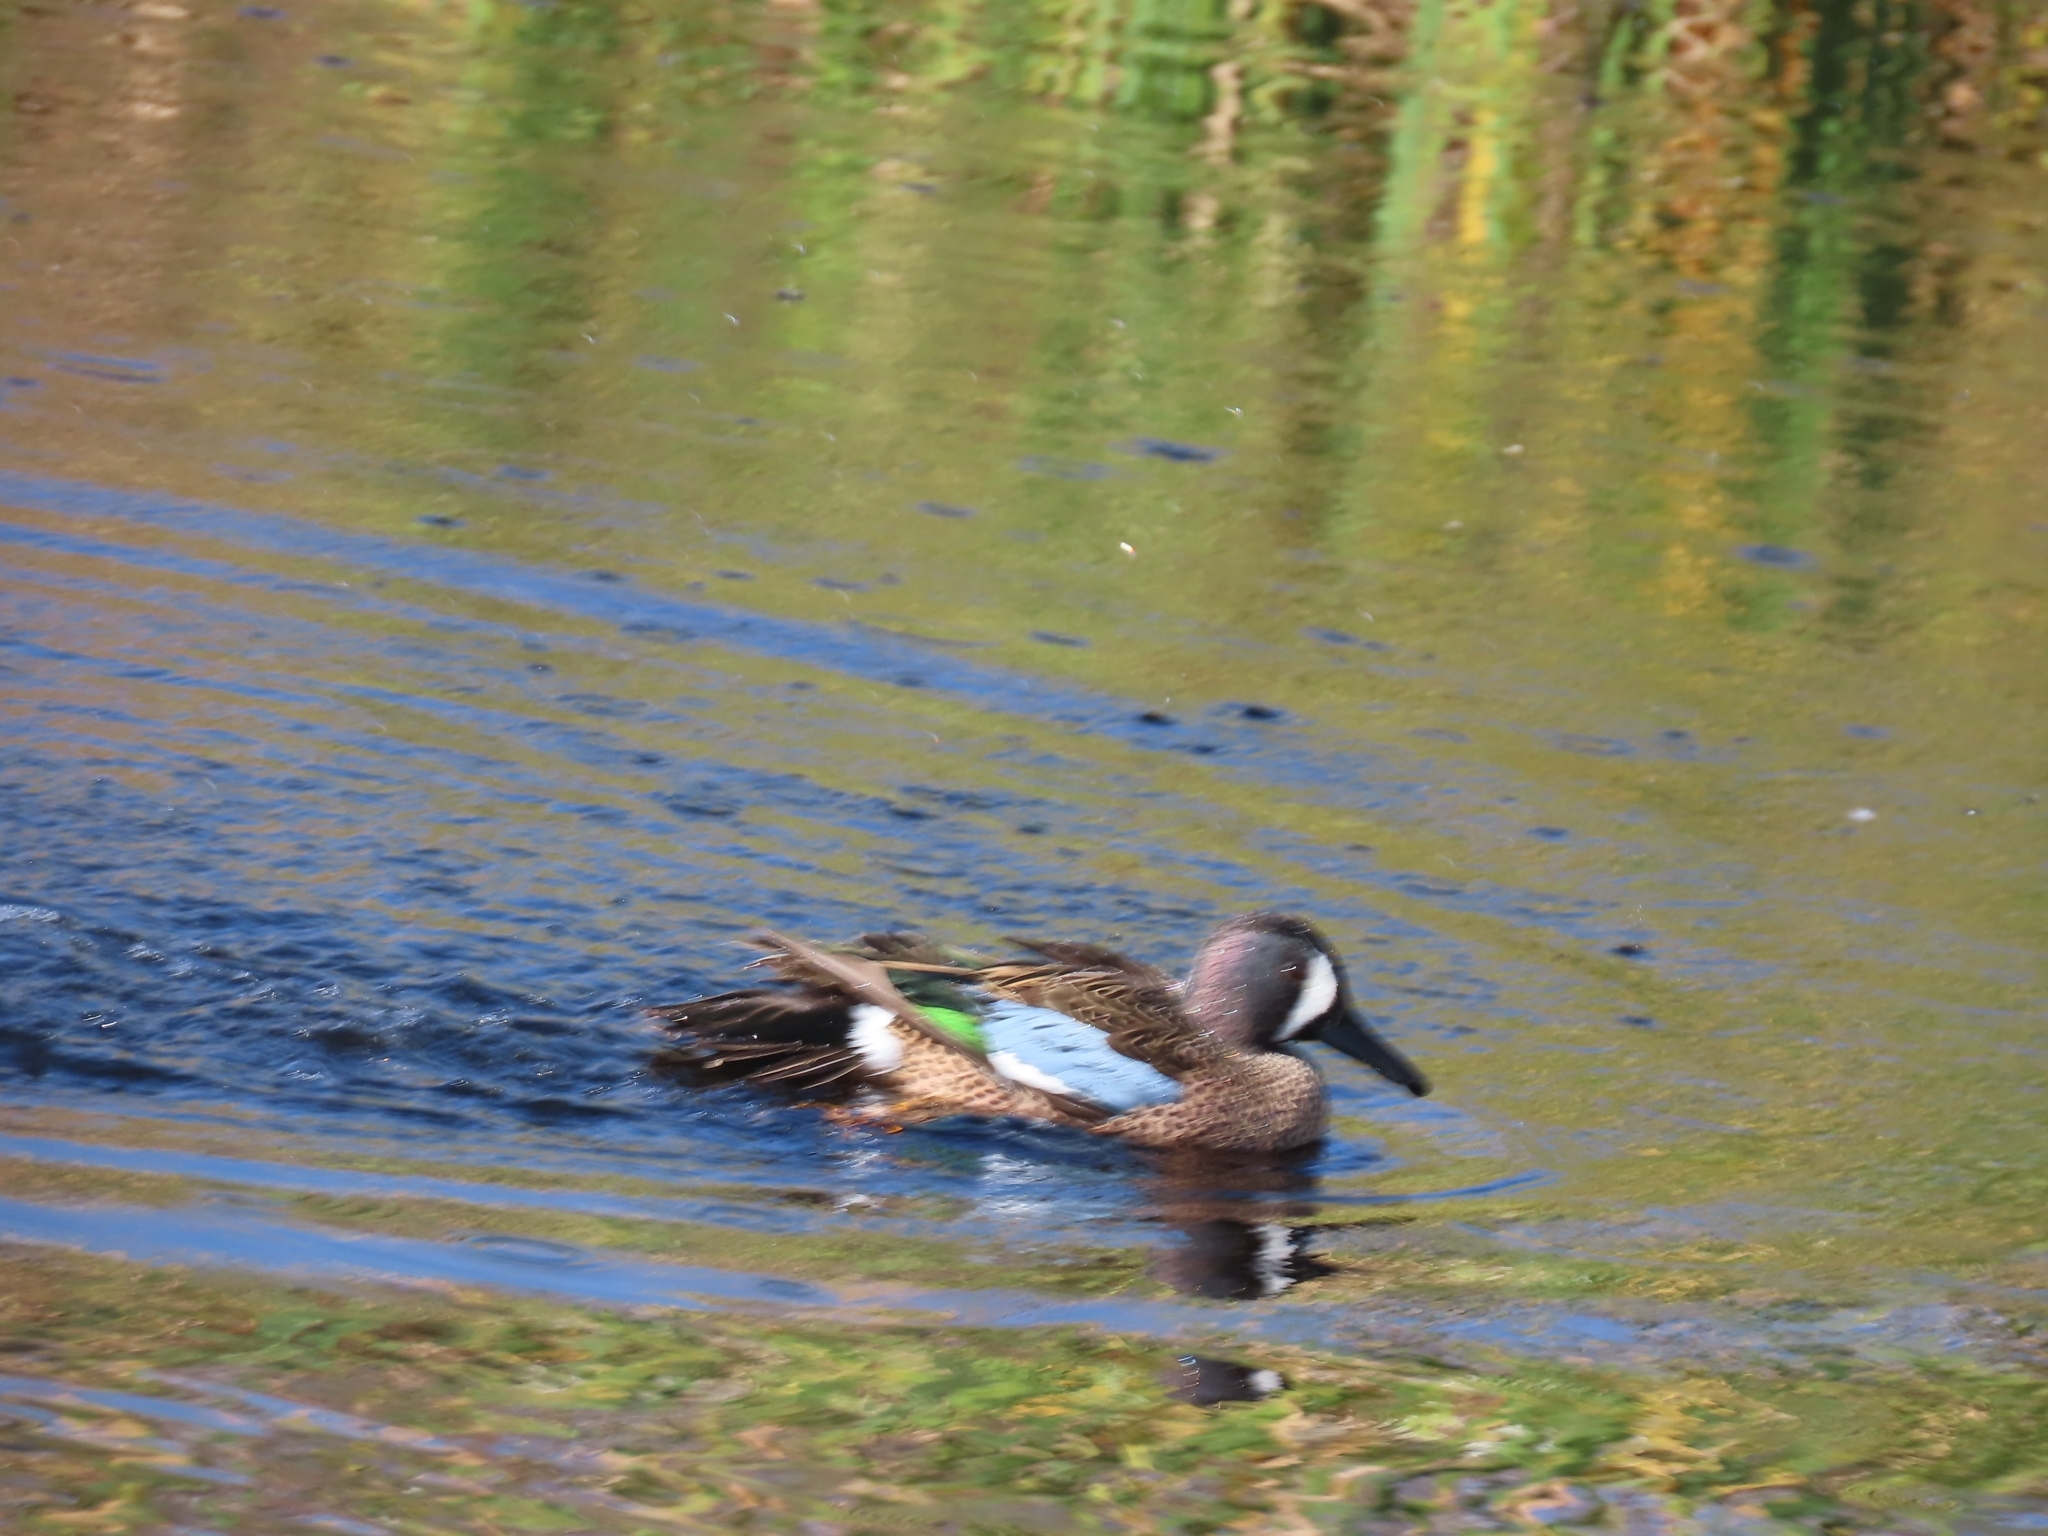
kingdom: Animalia
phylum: Chordata
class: Aves
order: Anseriformes
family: Anatidae
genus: Spatula
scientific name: Spatula discors
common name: Blue-winged teal
